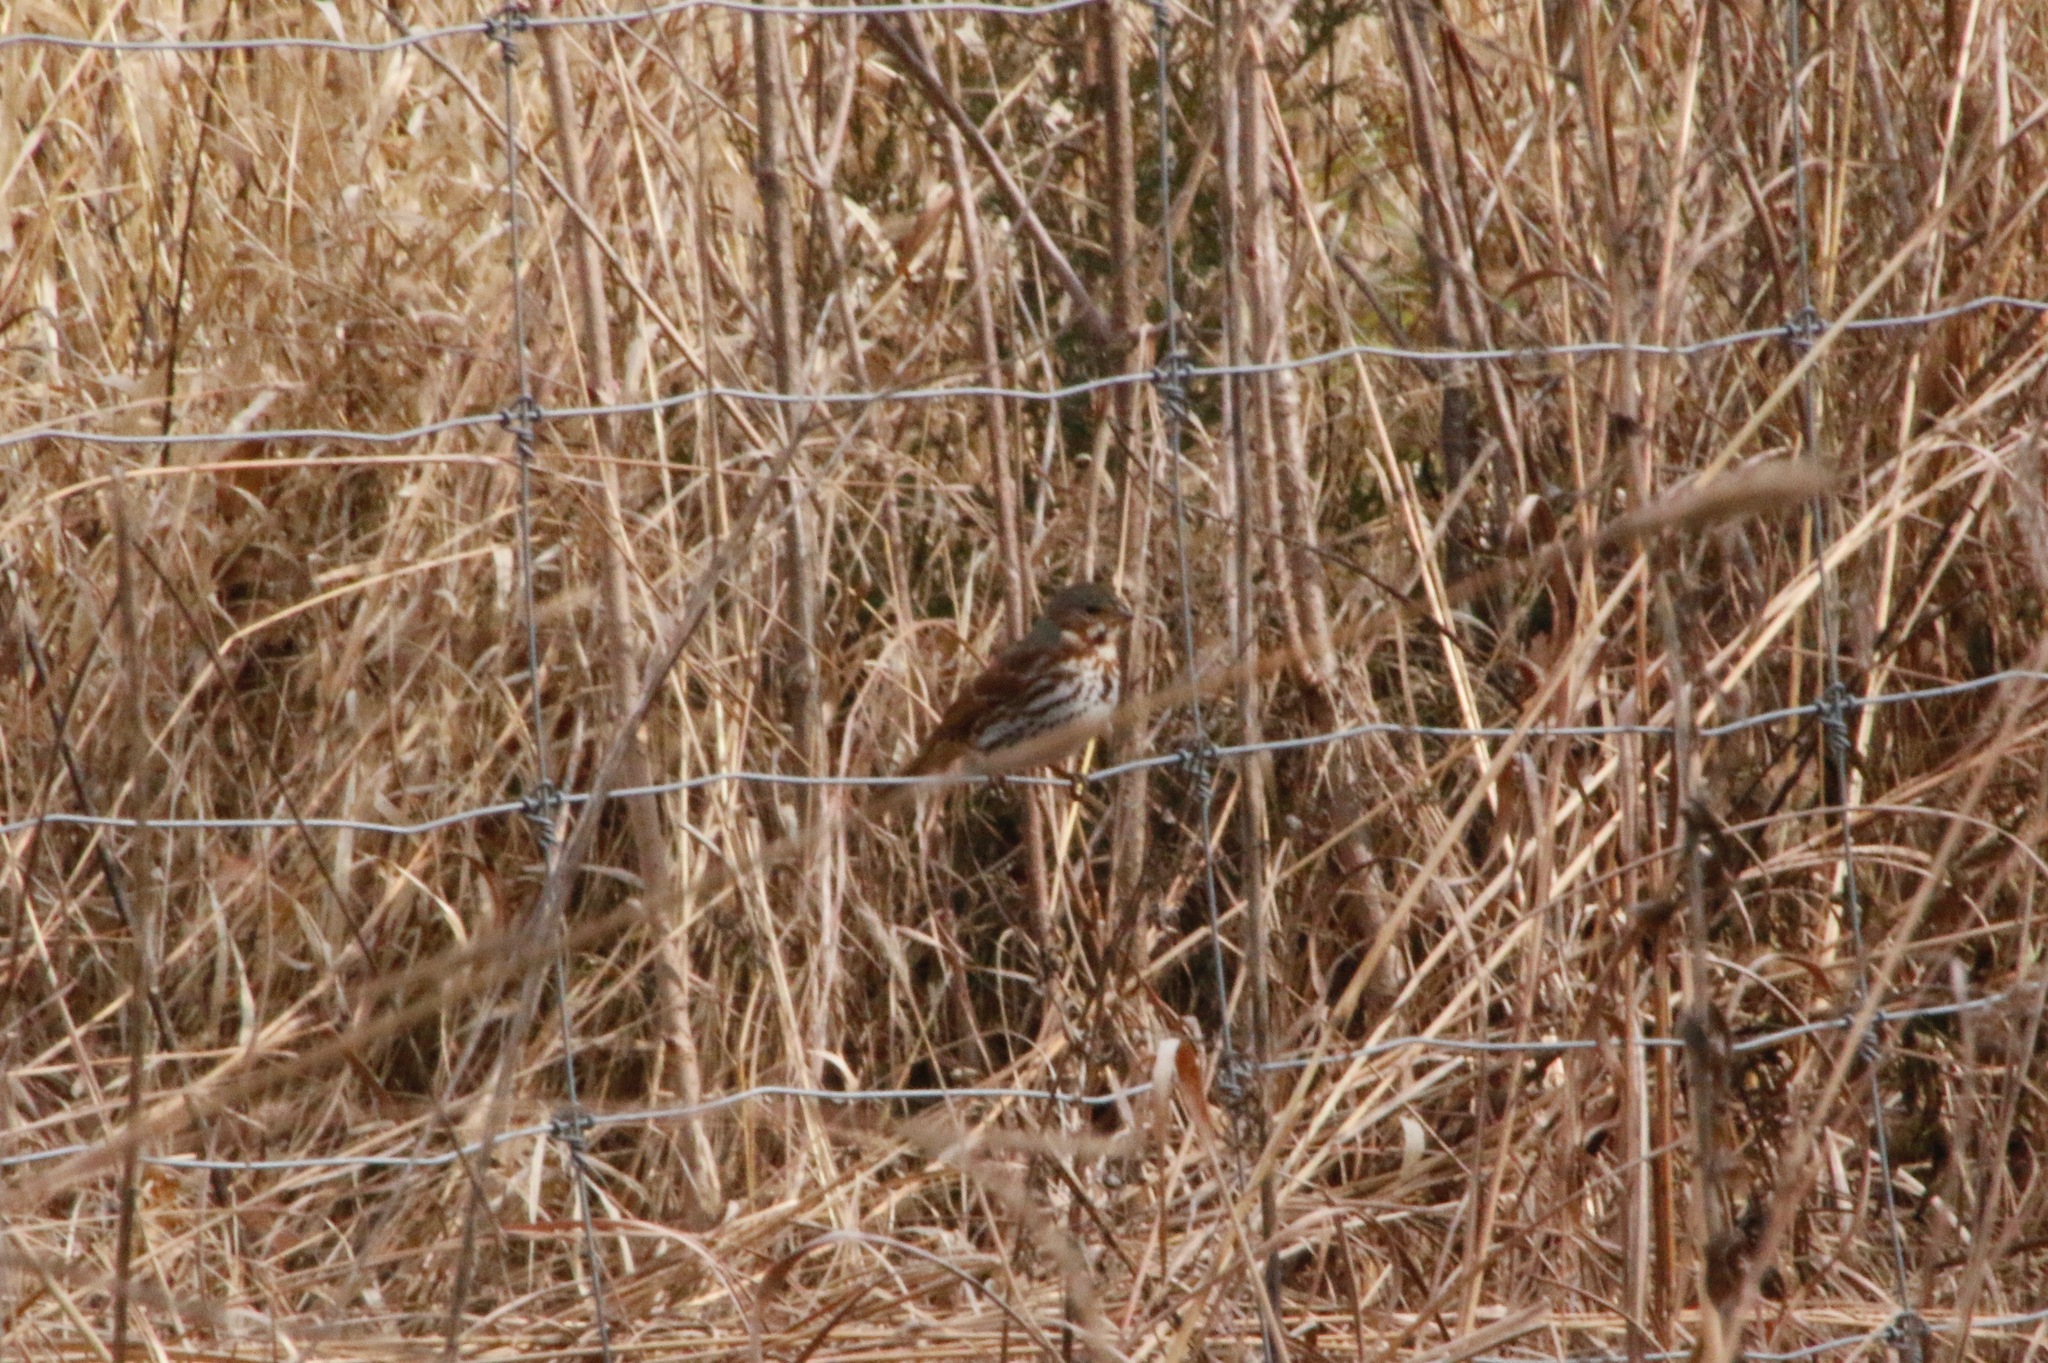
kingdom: Animalia
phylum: Chordata
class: Aves
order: Passeriformes
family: Passerellidae
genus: Passerella
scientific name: Passerella iliaca
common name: Fox sparrow
